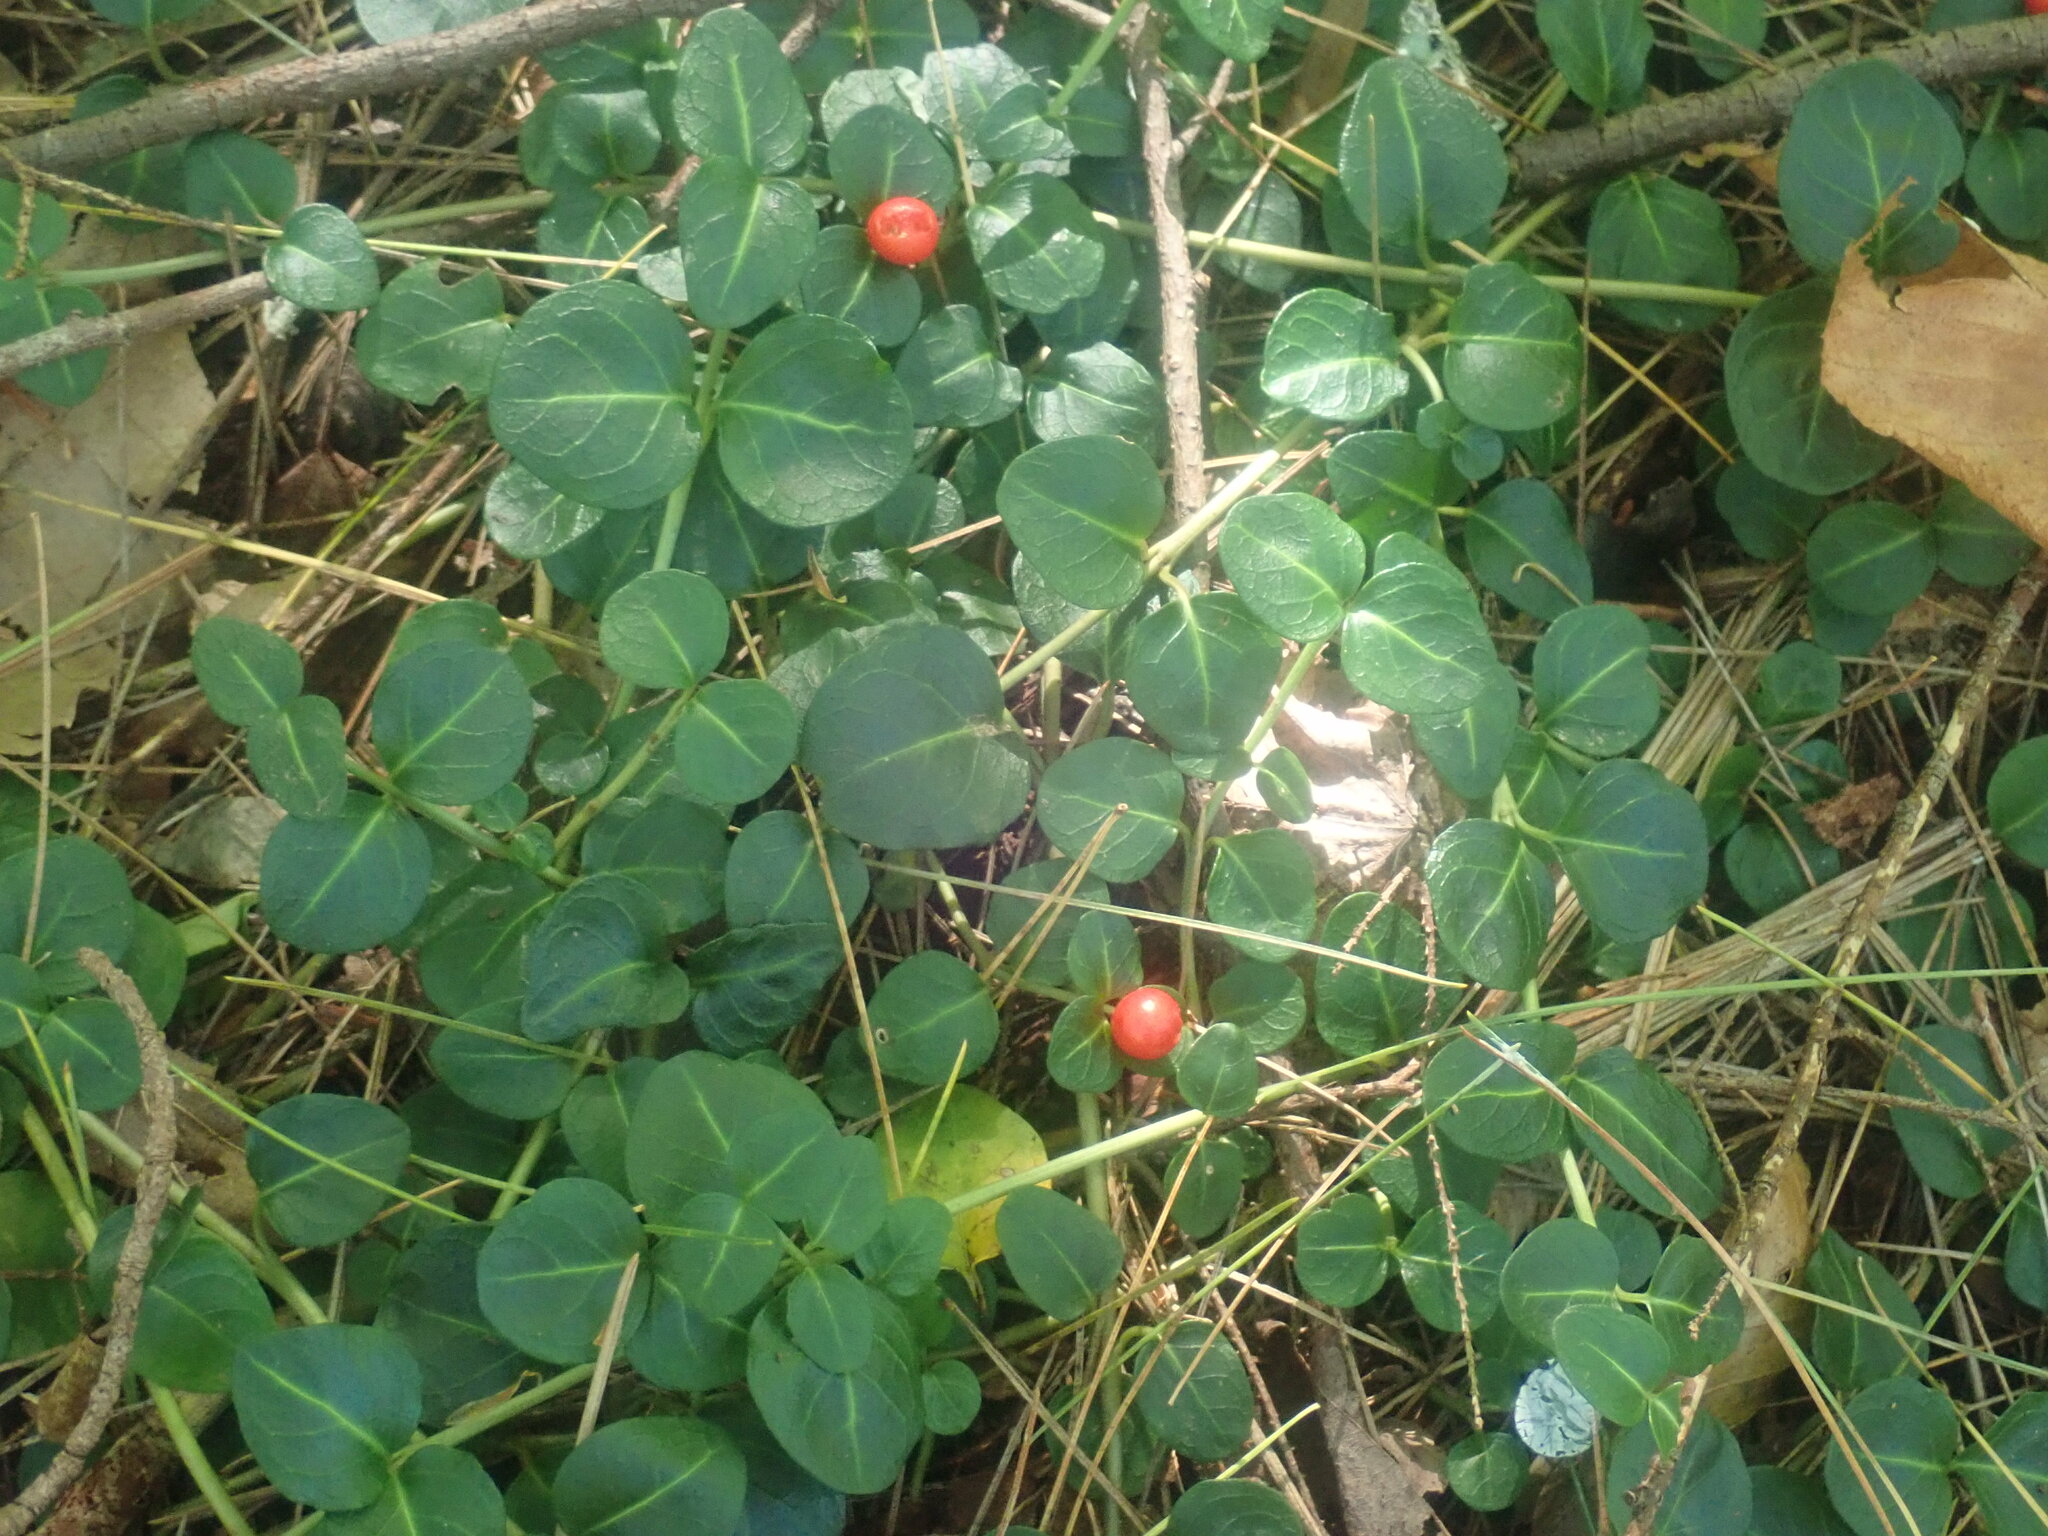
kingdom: Plantae
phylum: Tracheophyta
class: Magnoliopsida
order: Gentianales
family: Rubiaceae
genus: Mitchella
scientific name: Mitchella repens
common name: Partridge-berry
